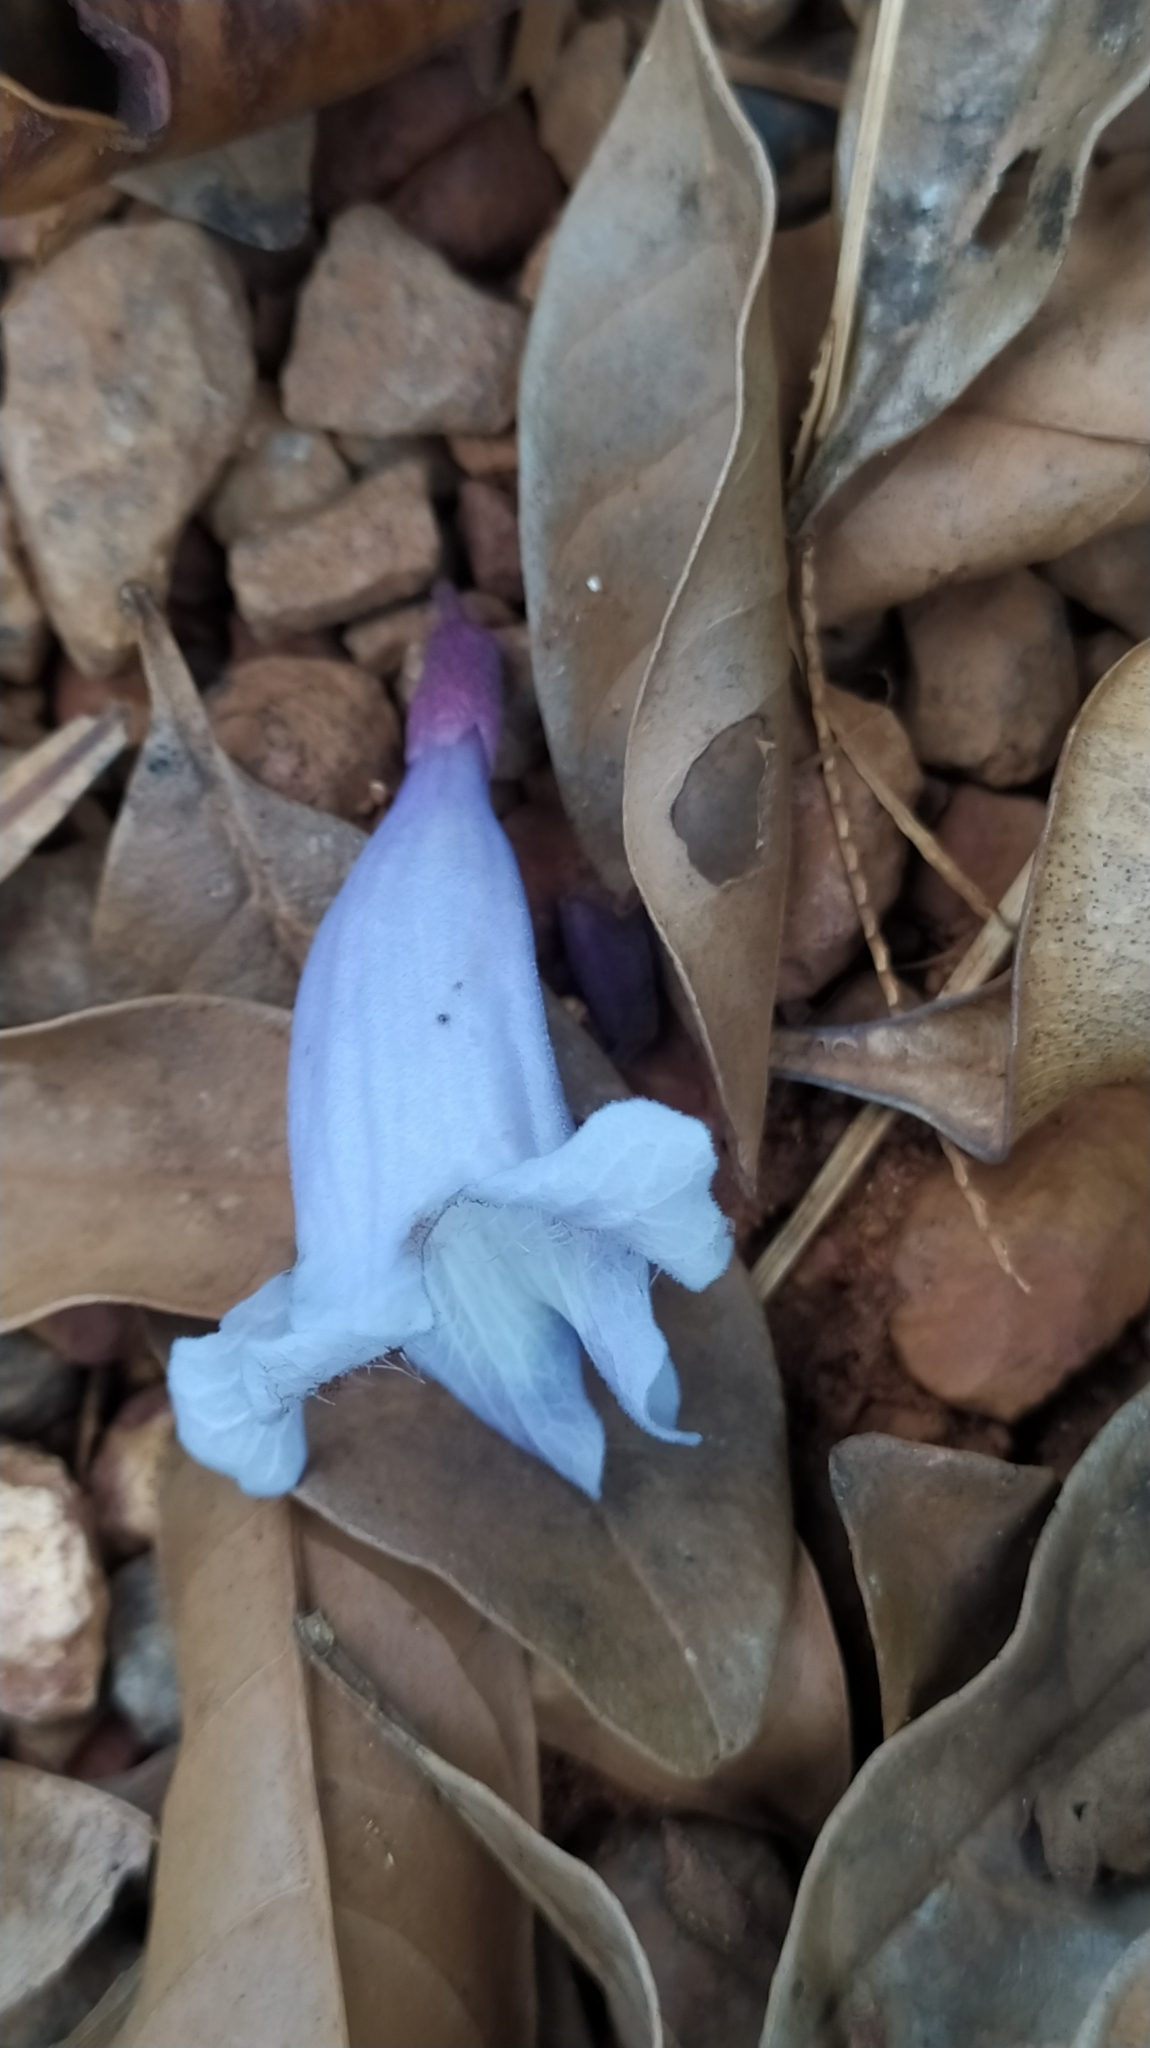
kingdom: Plantae
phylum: Tracheophyta
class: Magnoliopsida
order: Lamiales
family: Bignoniaceae
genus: Jacaranda
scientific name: Jacaranda copaia
